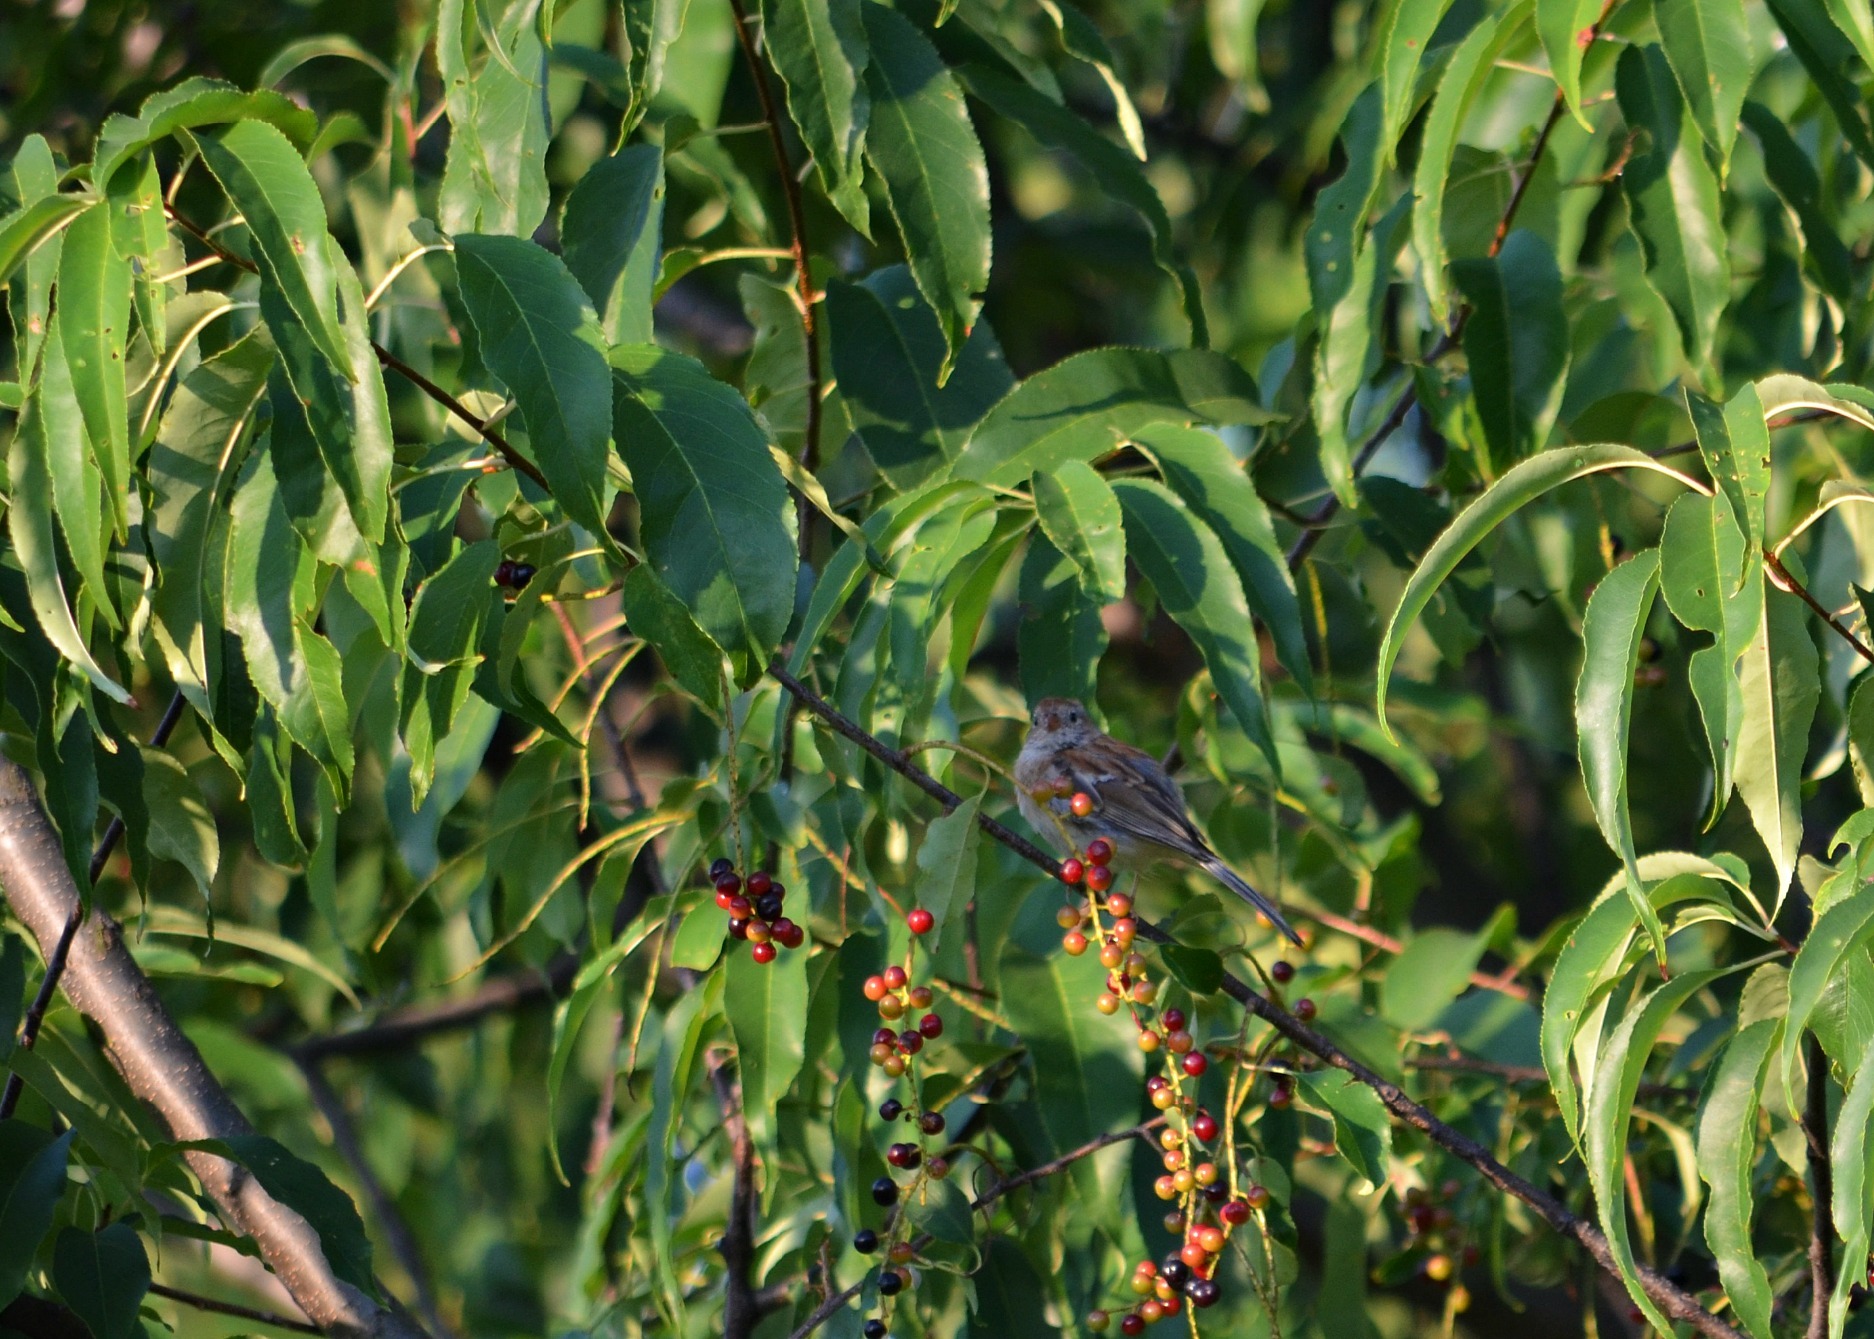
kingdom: Animalia
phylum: Chordata
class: Aves
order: Passeriformes
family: Passerellidae
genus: Spizella
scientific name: Spizella pusilla
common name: Field sparrow
